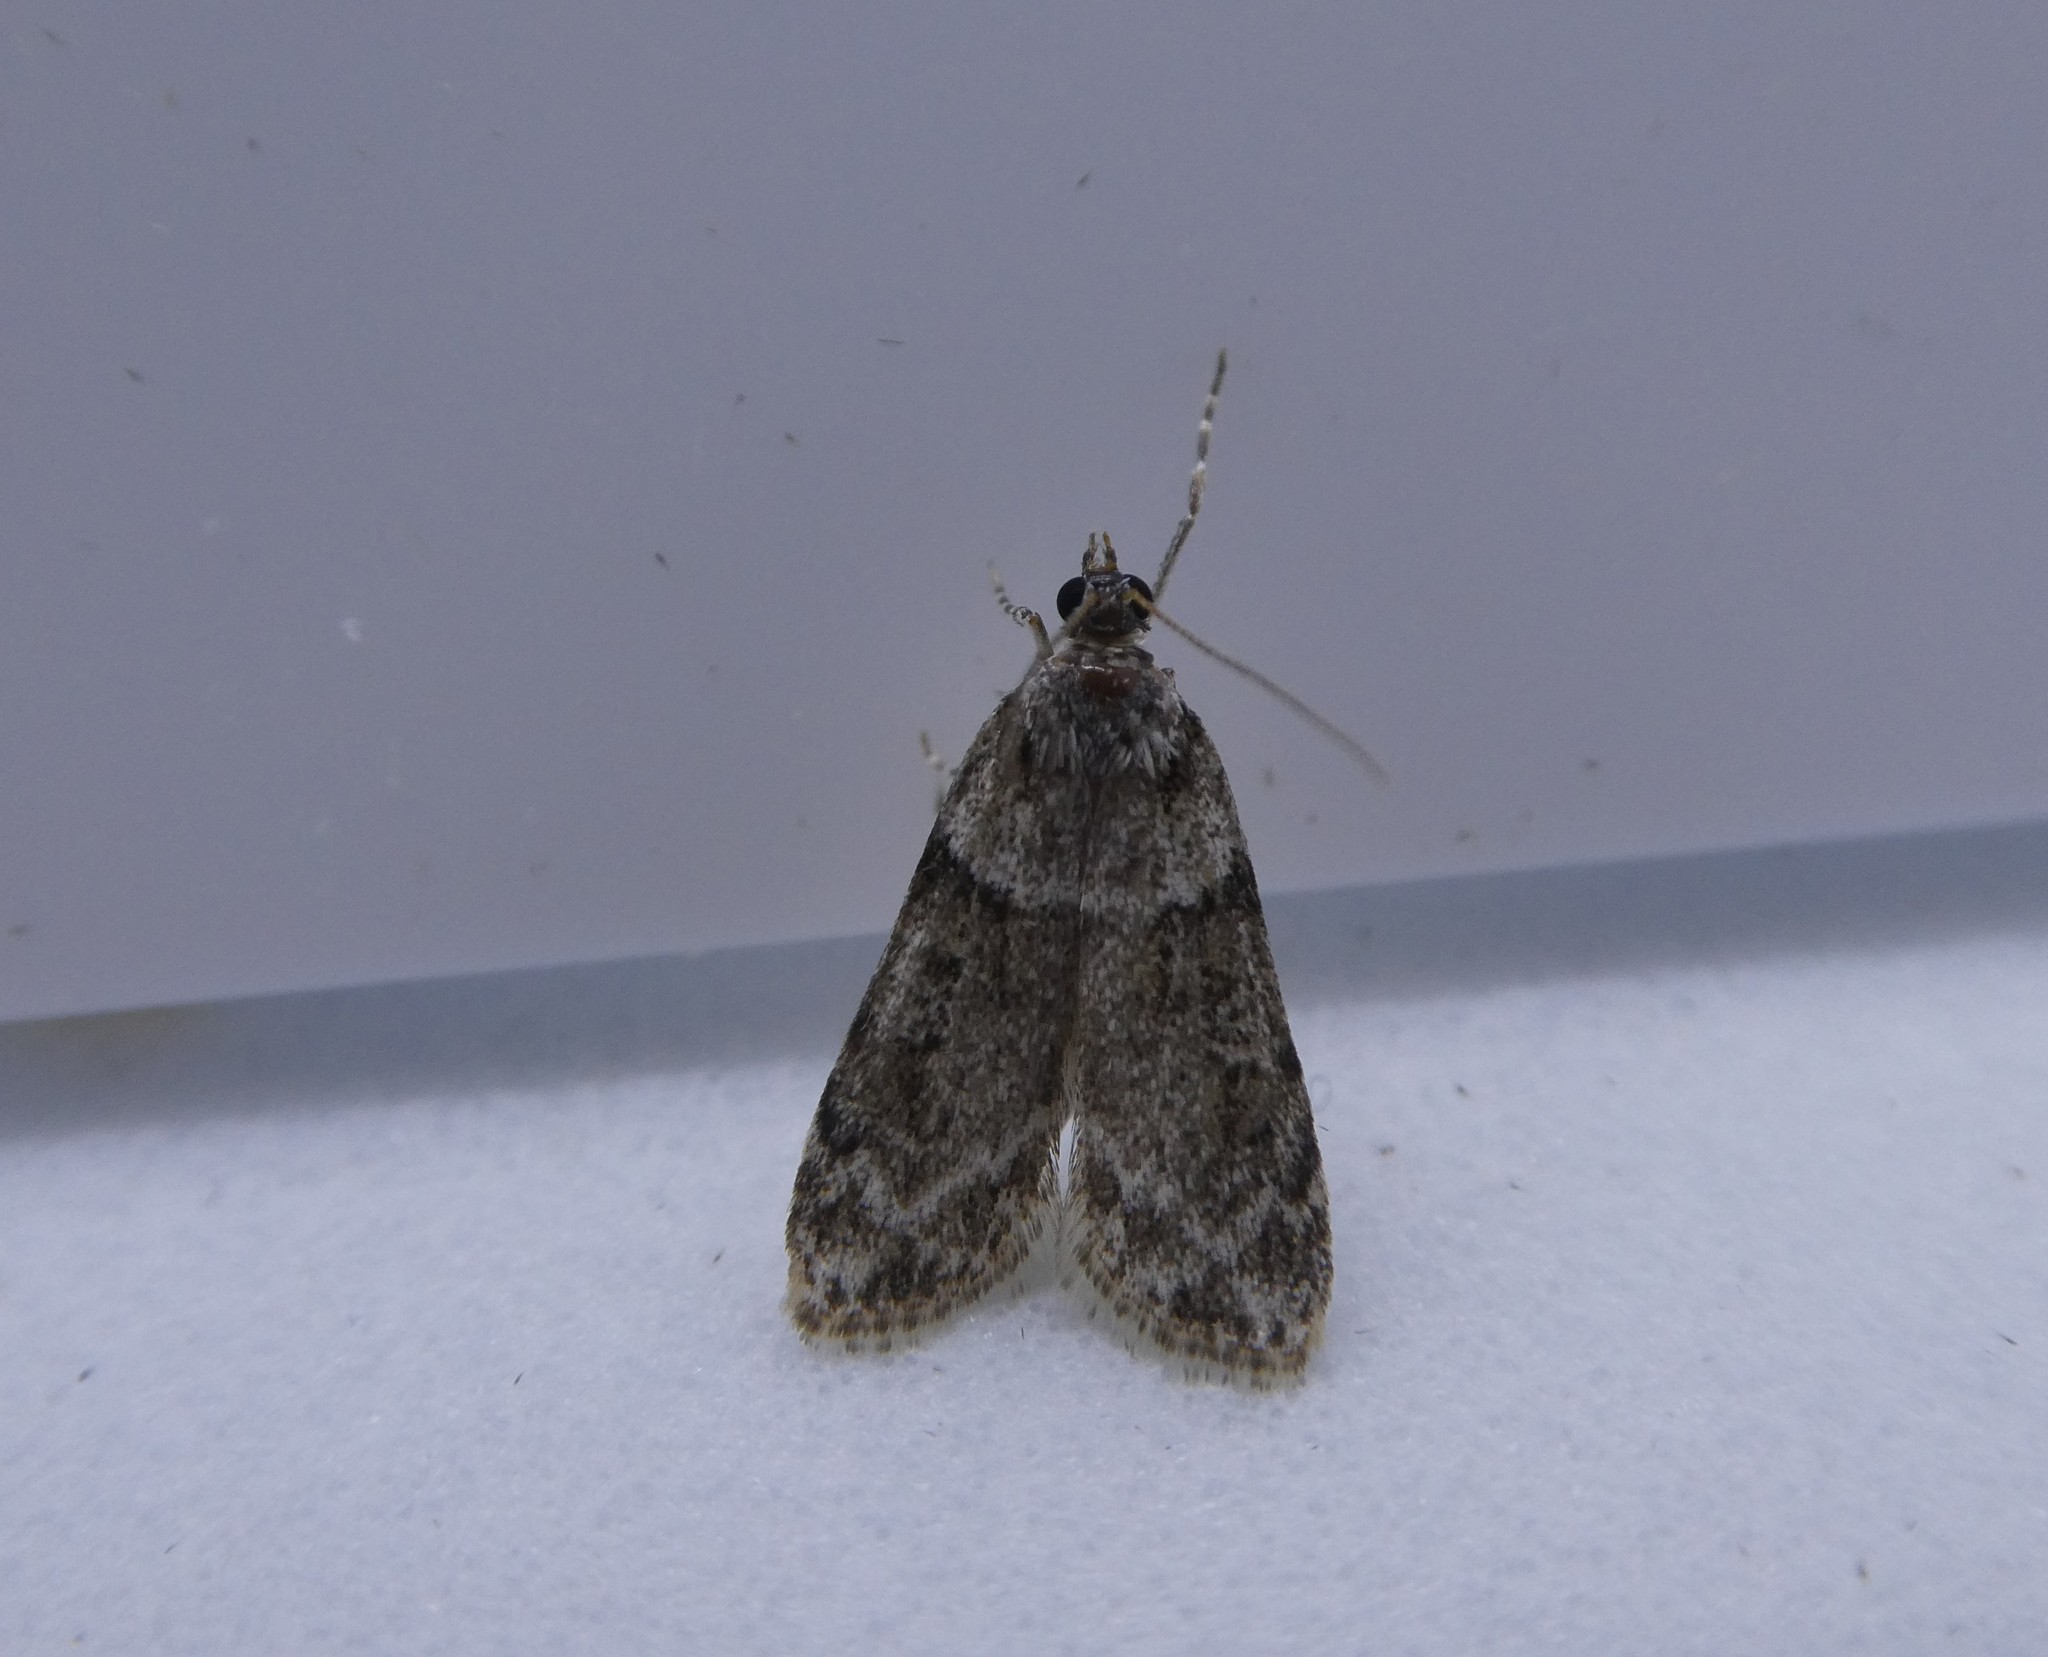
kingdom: Animalia
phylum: Arthropoda
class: Insecta
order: Lepidoptera
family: Crambidae
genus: Scoparia
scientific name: Scoparia biplagialis
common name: Double-striped scoparia moth
